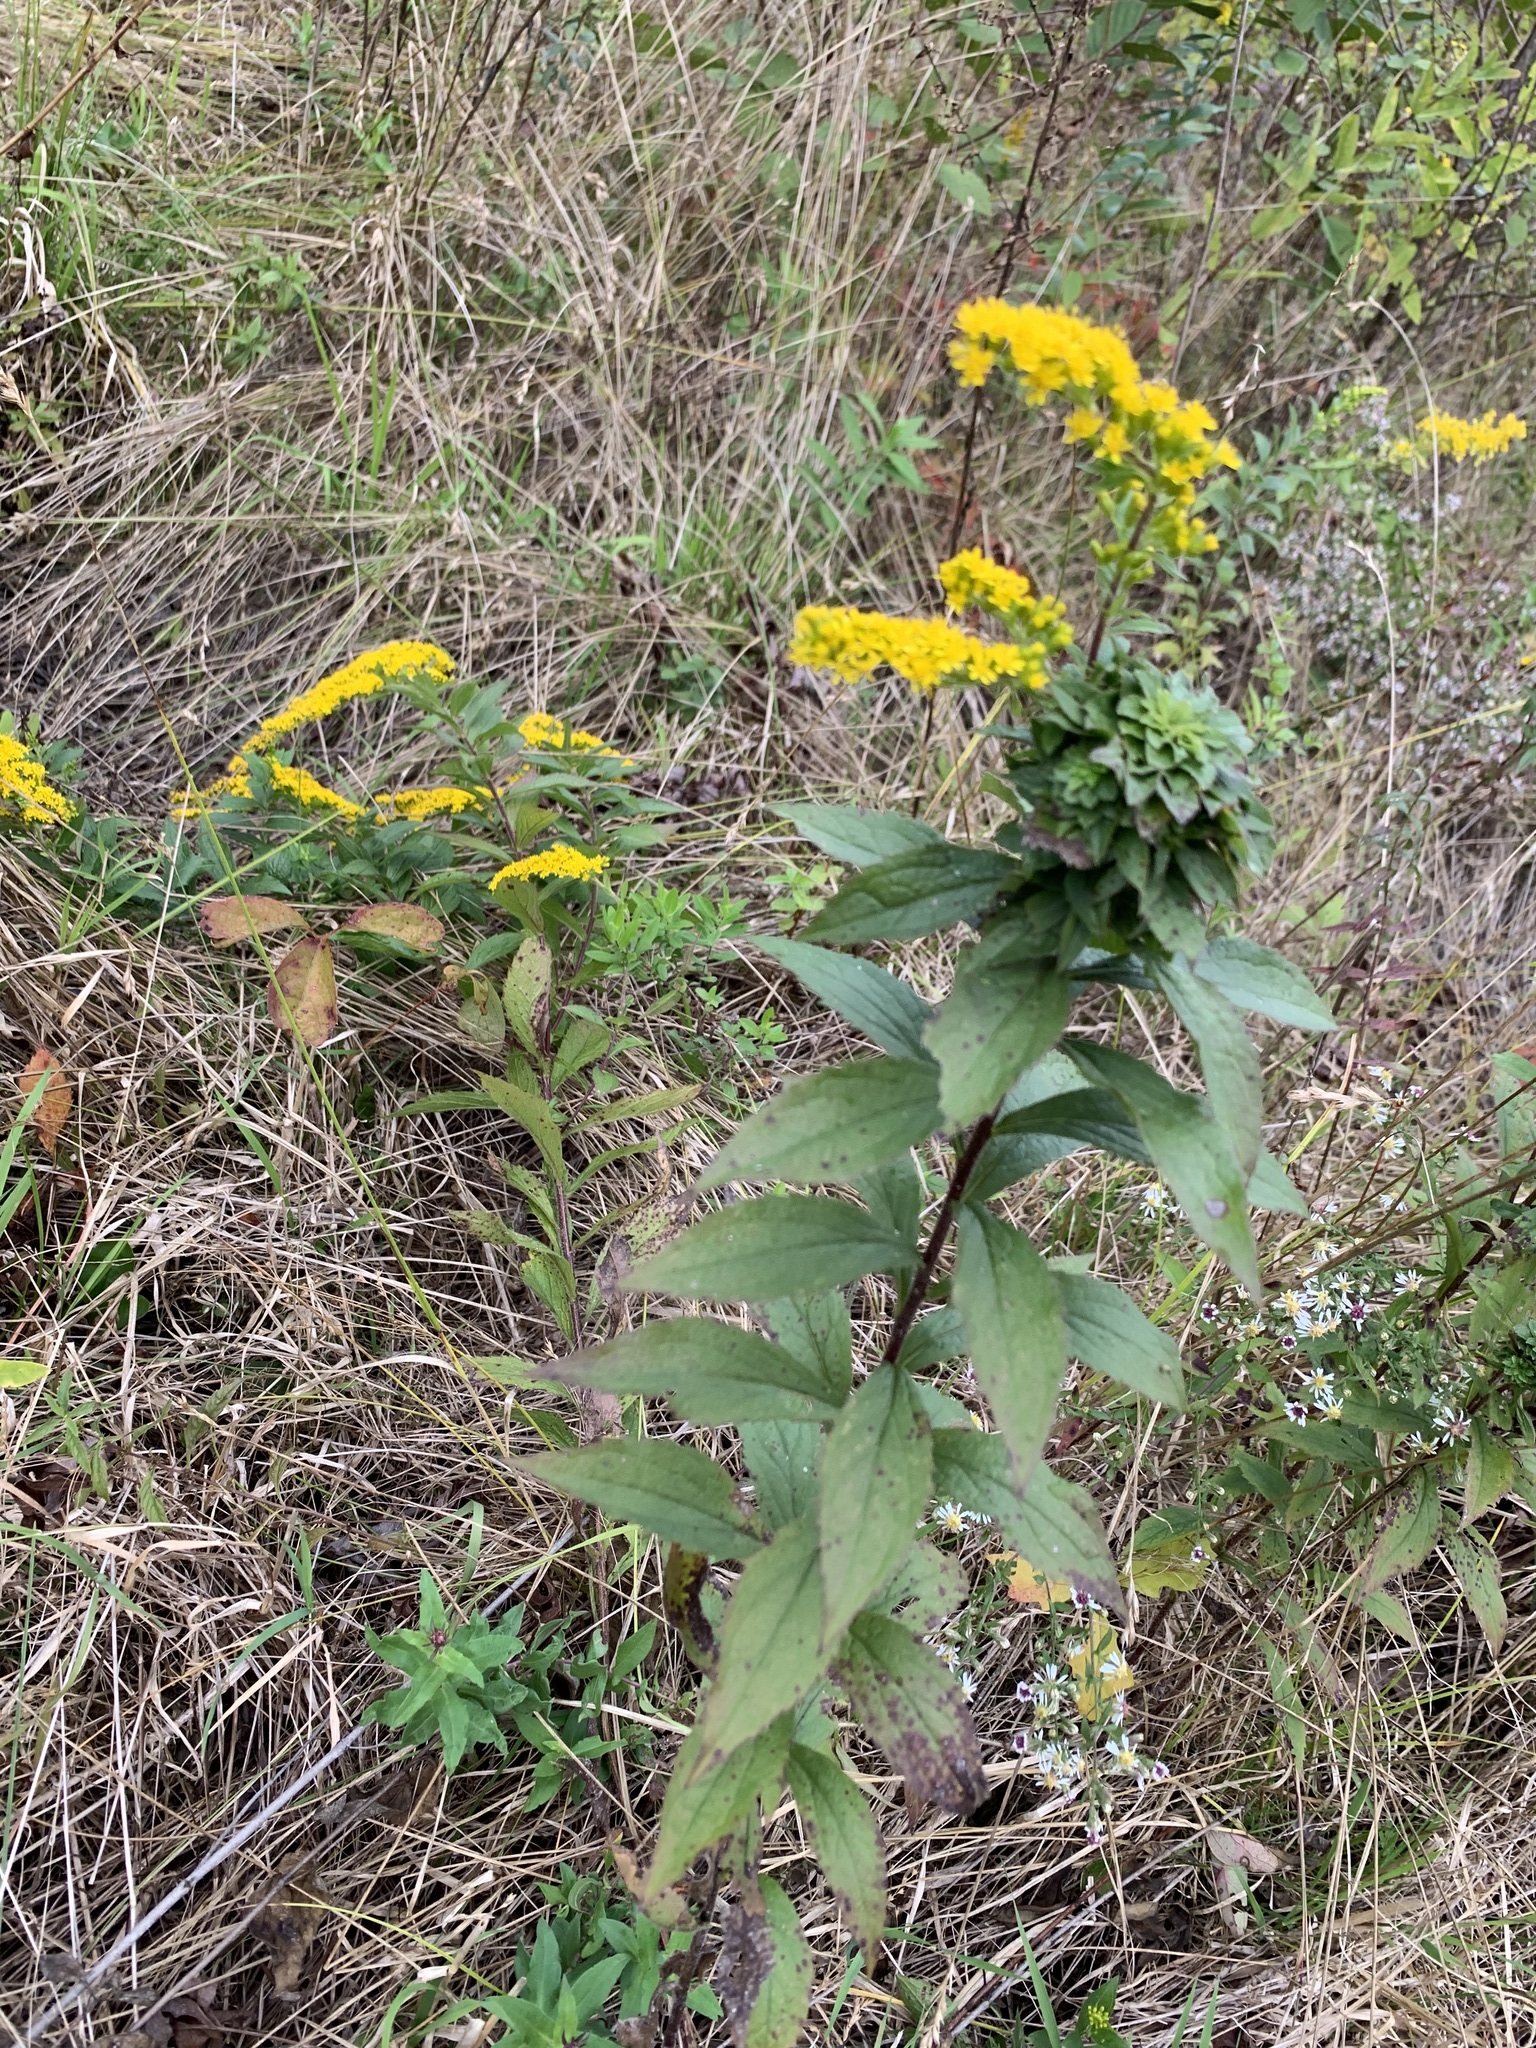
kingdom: Plantae
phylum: Tracheophyta
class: Magnoliopsida
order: Asterales
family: Asteraceae
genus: Solidago
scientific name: Solidago rugosa
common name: Rough-stemmed goldenrod
